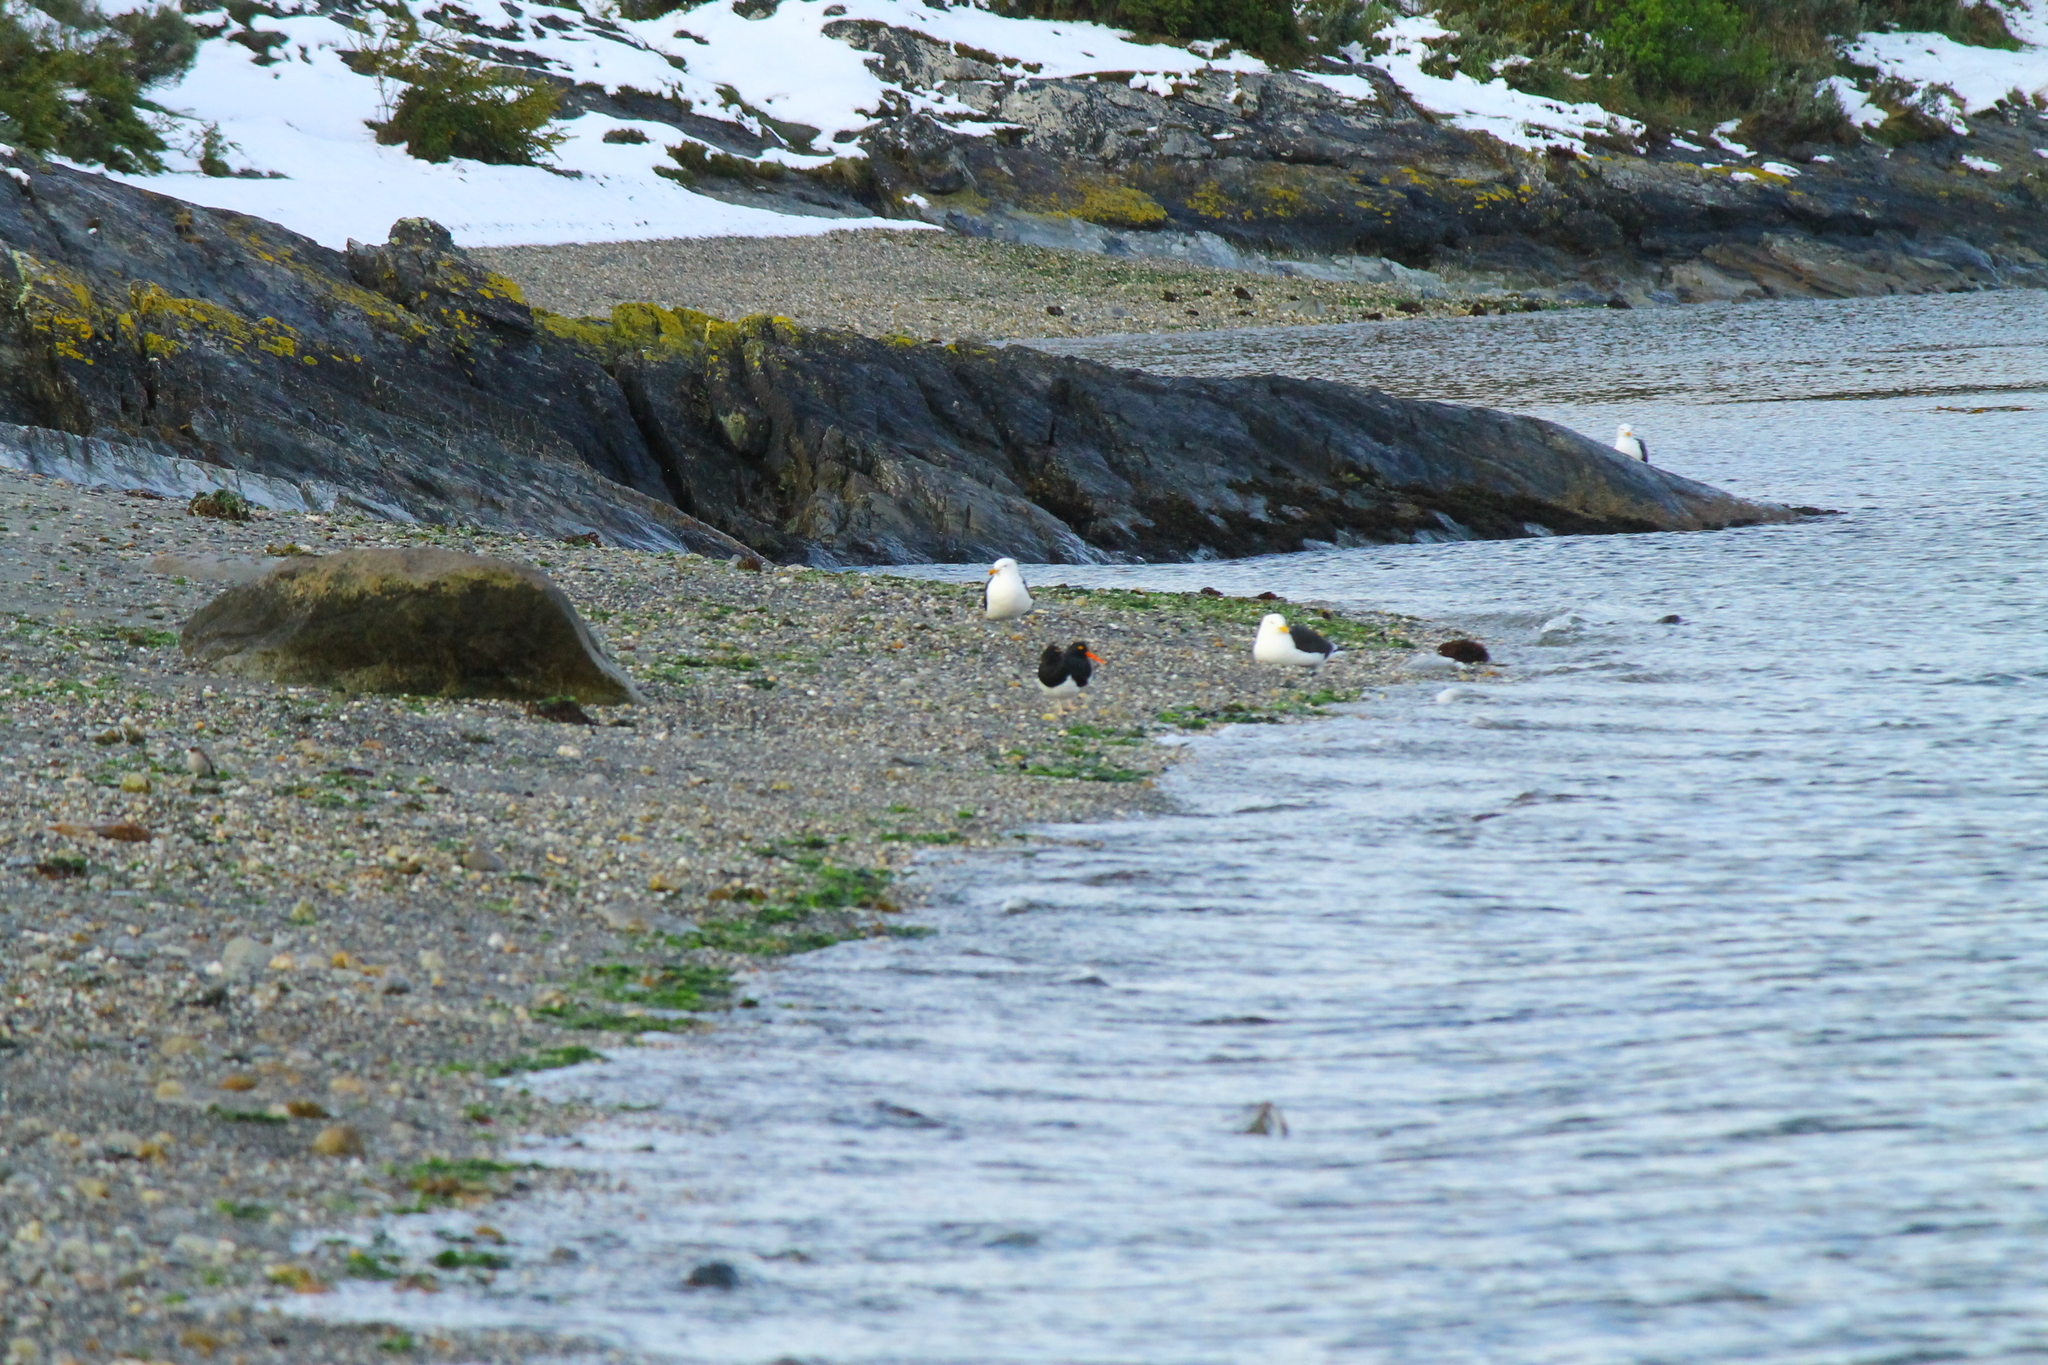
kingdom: Animalia
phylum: Chordata
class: Aves
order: Charadriiformes
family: Haematopodidae
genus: Haematopus
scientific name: Haematopus leucopodus
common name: Magellanic oystercatcher
